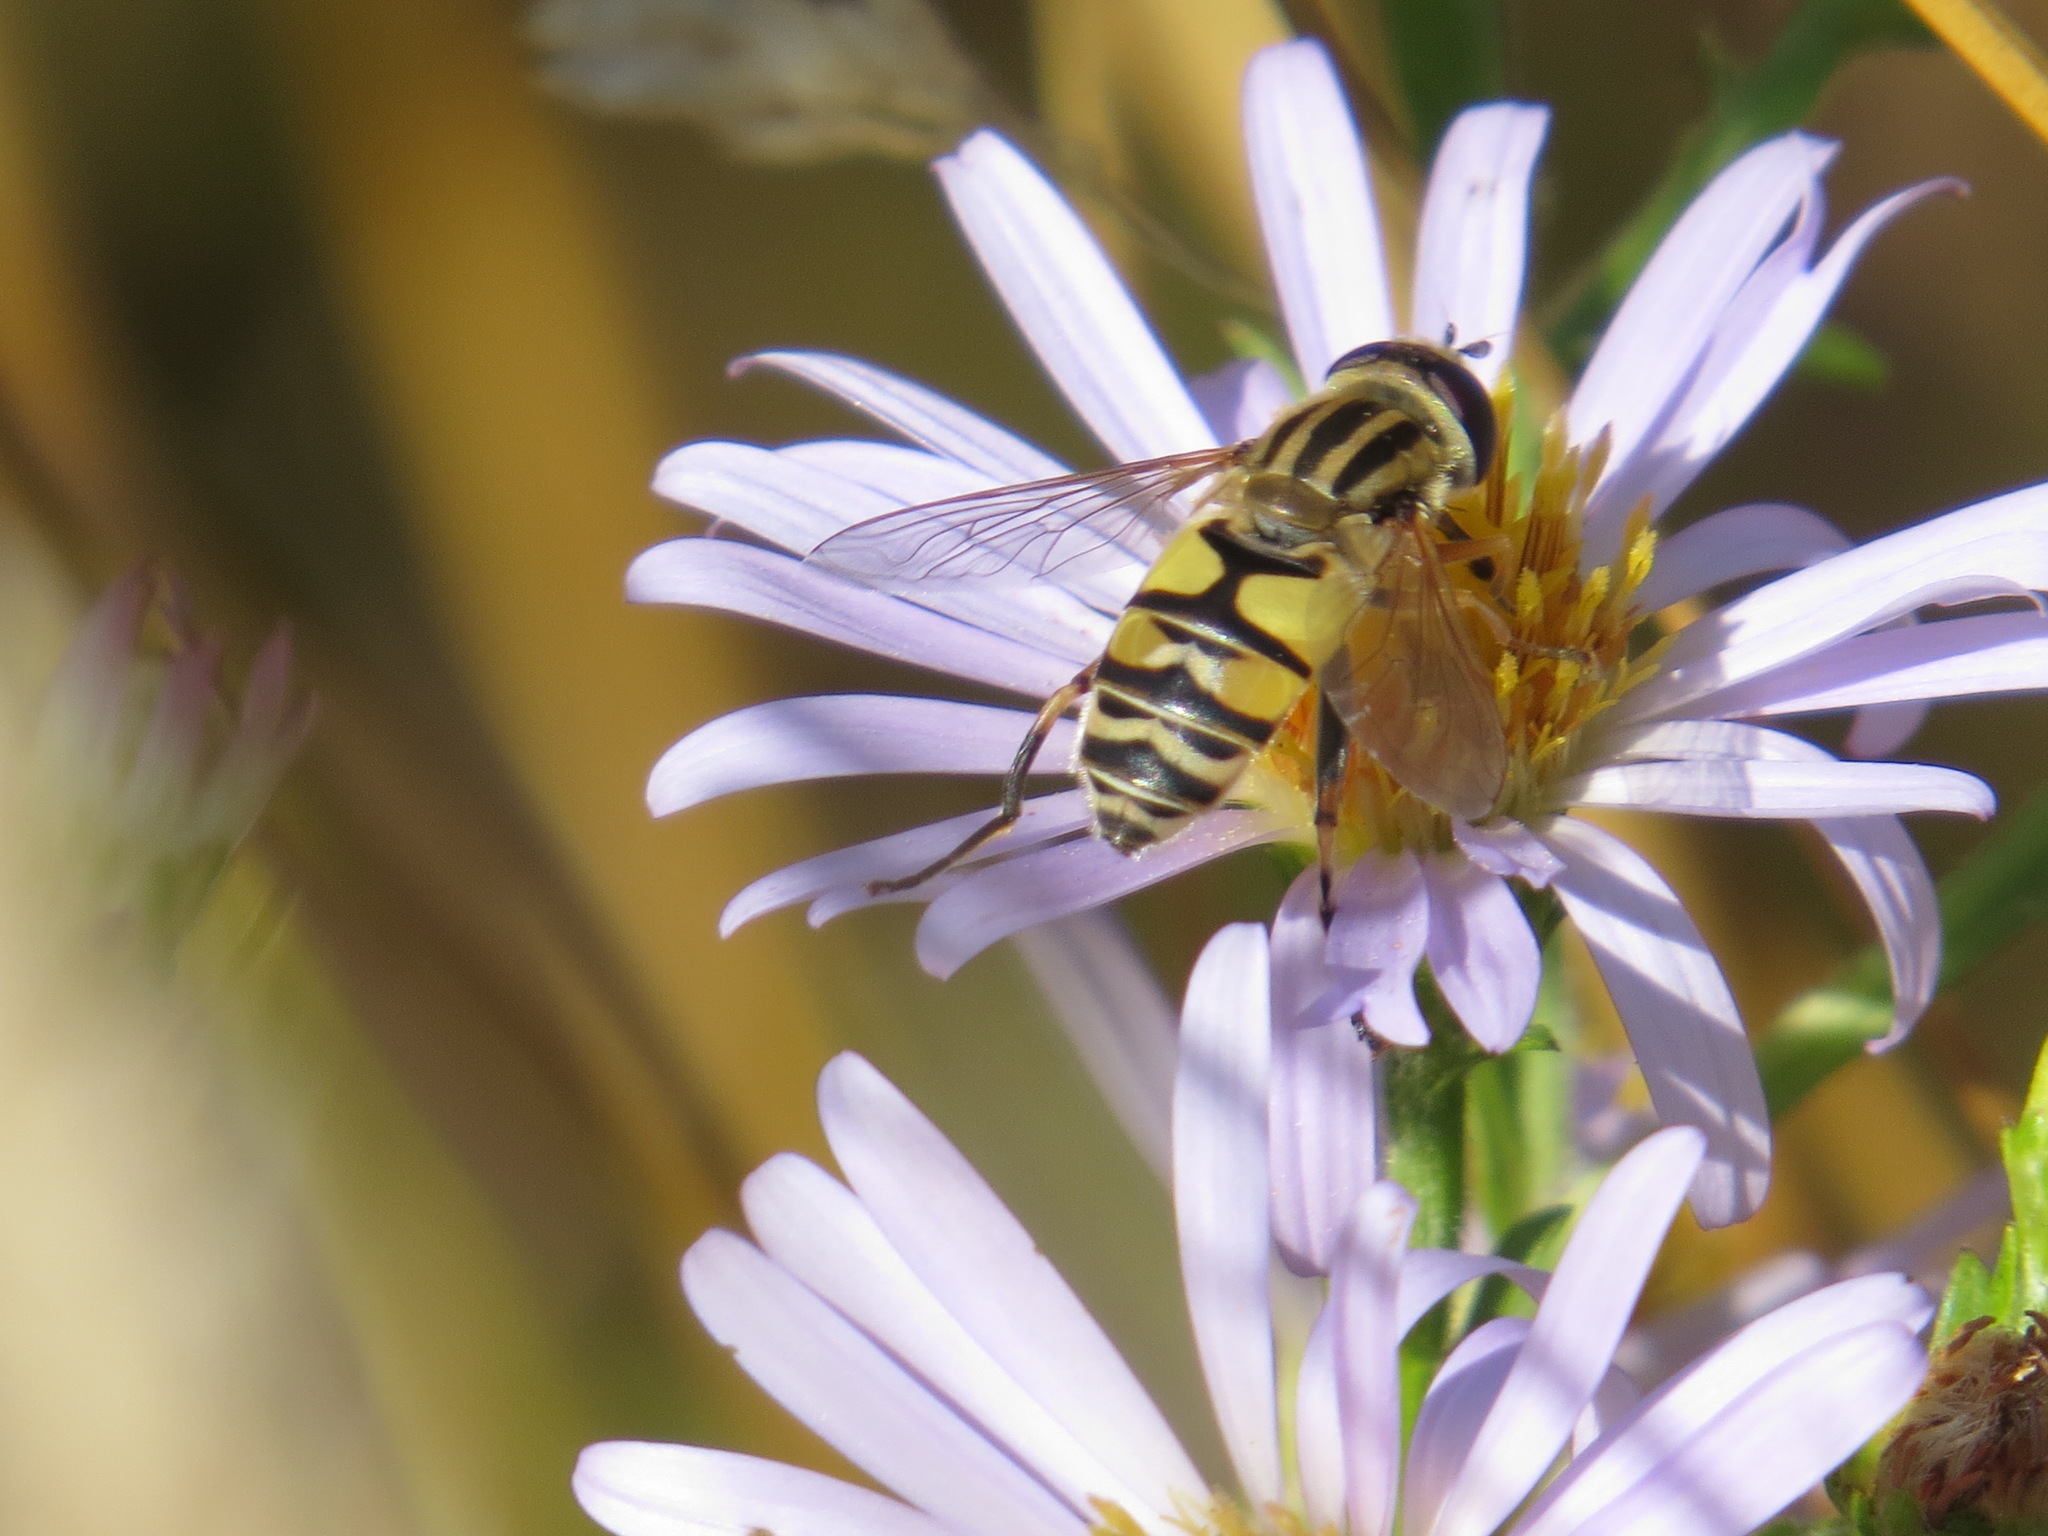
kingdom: Animalia
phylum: Arthropoda
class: Insecta
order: Diptera
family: Syrphidae
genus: Helophilus
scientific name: Helophilus latifrons
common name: Broad-headed marsh fly
